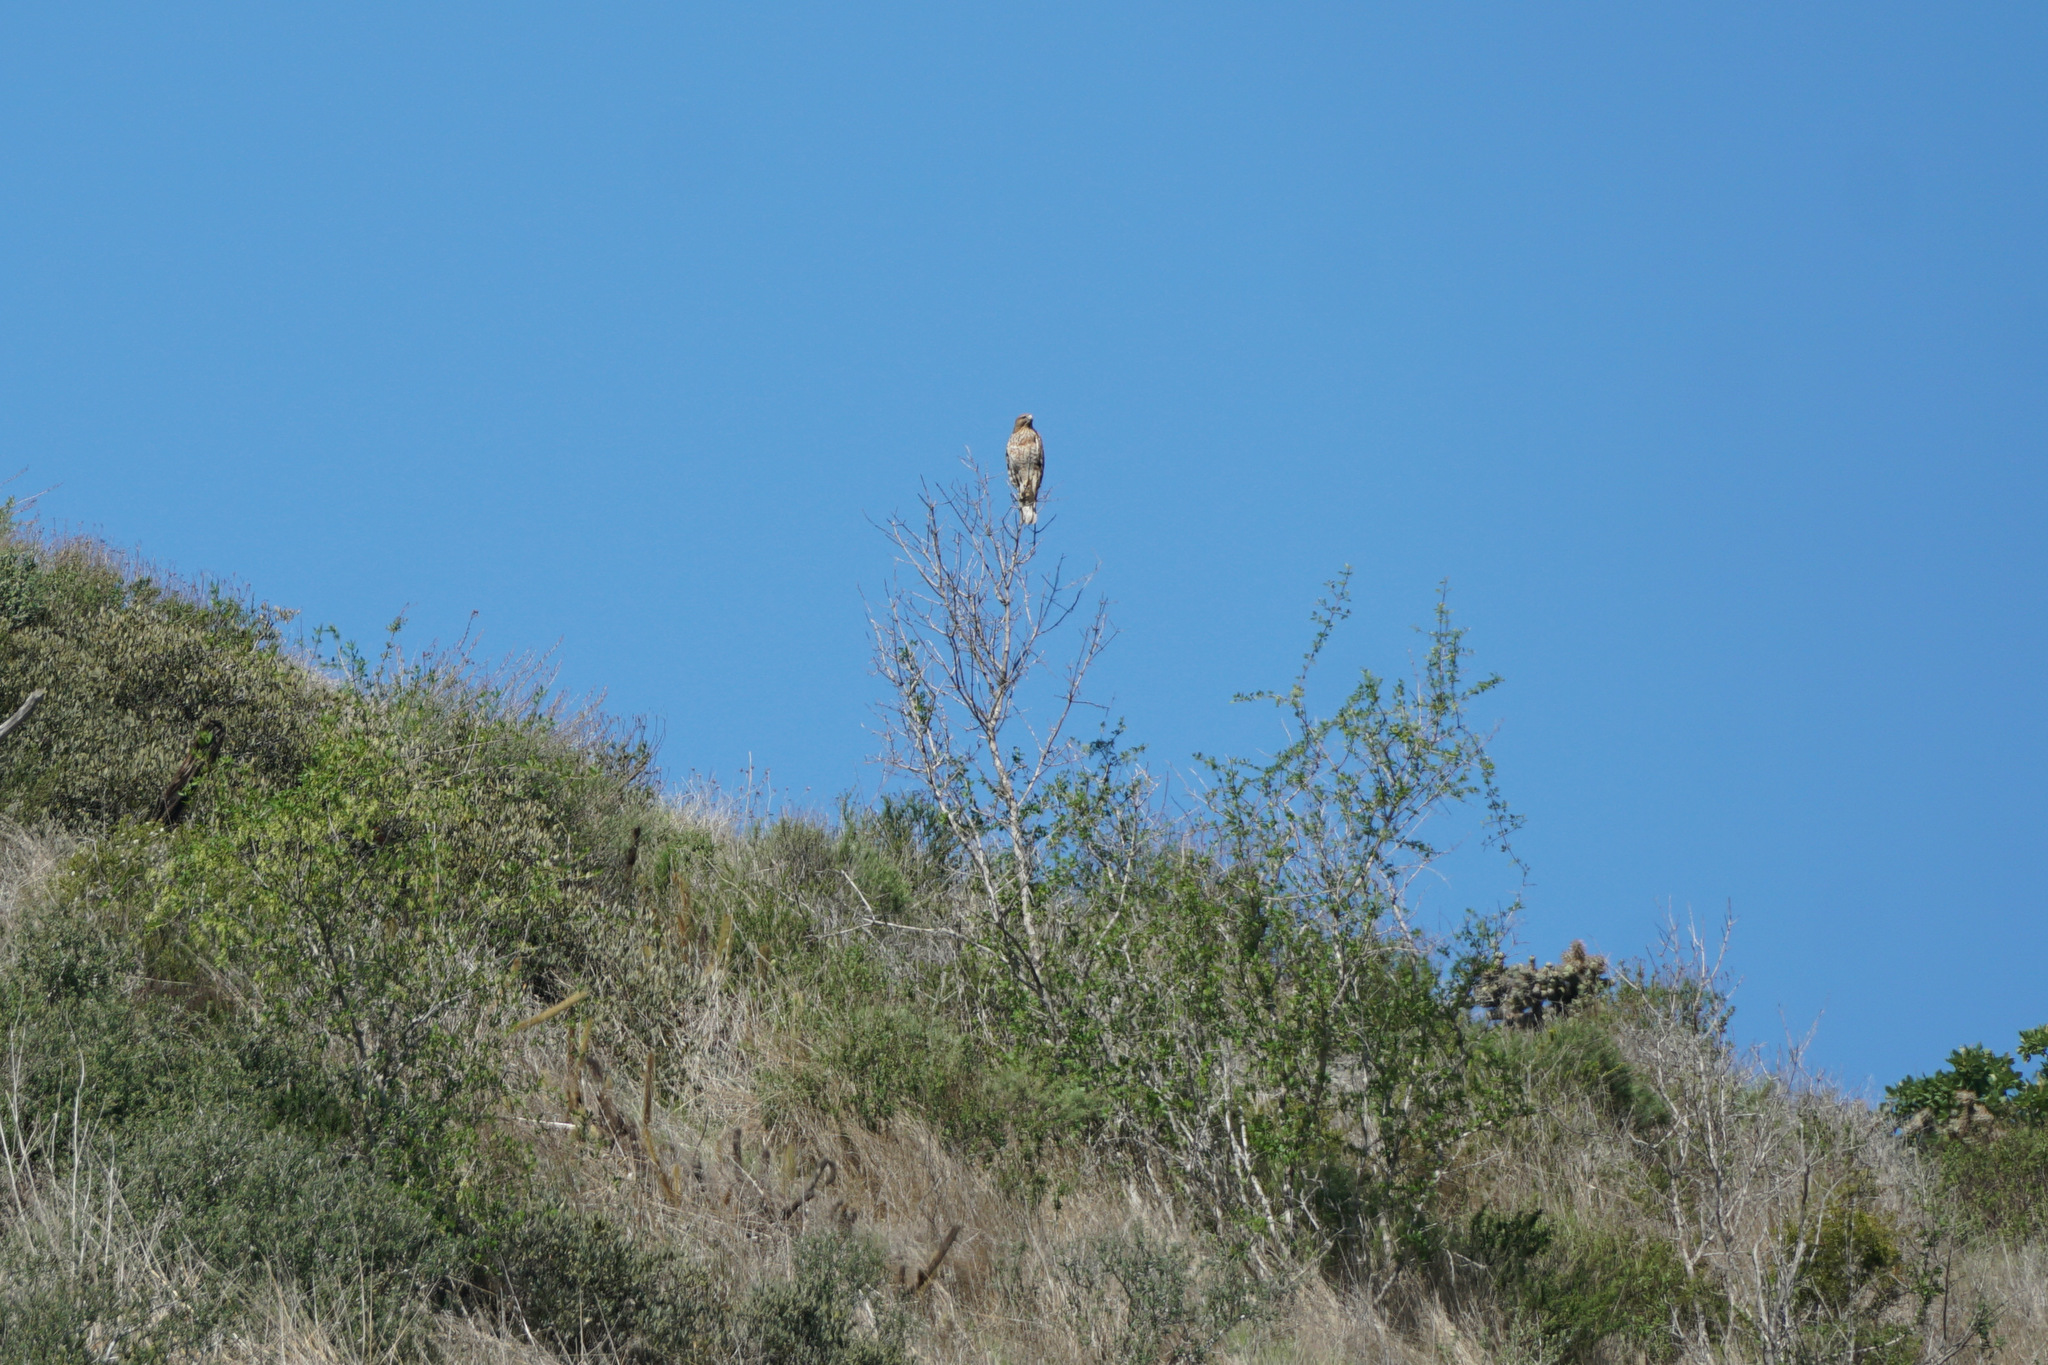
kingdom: Animalia
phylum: Chordata
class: Aves
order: Accipitriformes
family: Accipitridae
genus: Buteo
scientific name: Buteo lineatus
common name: Red-shouldered hawk
